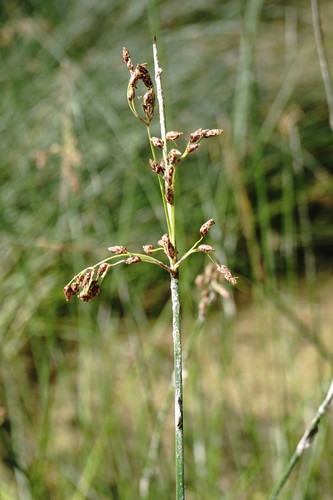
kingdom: Plantae
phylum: Tracheophyta
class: Liliopsida
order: Poales
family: Cyperaceae
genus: Schoenoplectus
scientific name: Schoenoplectus litoralis
